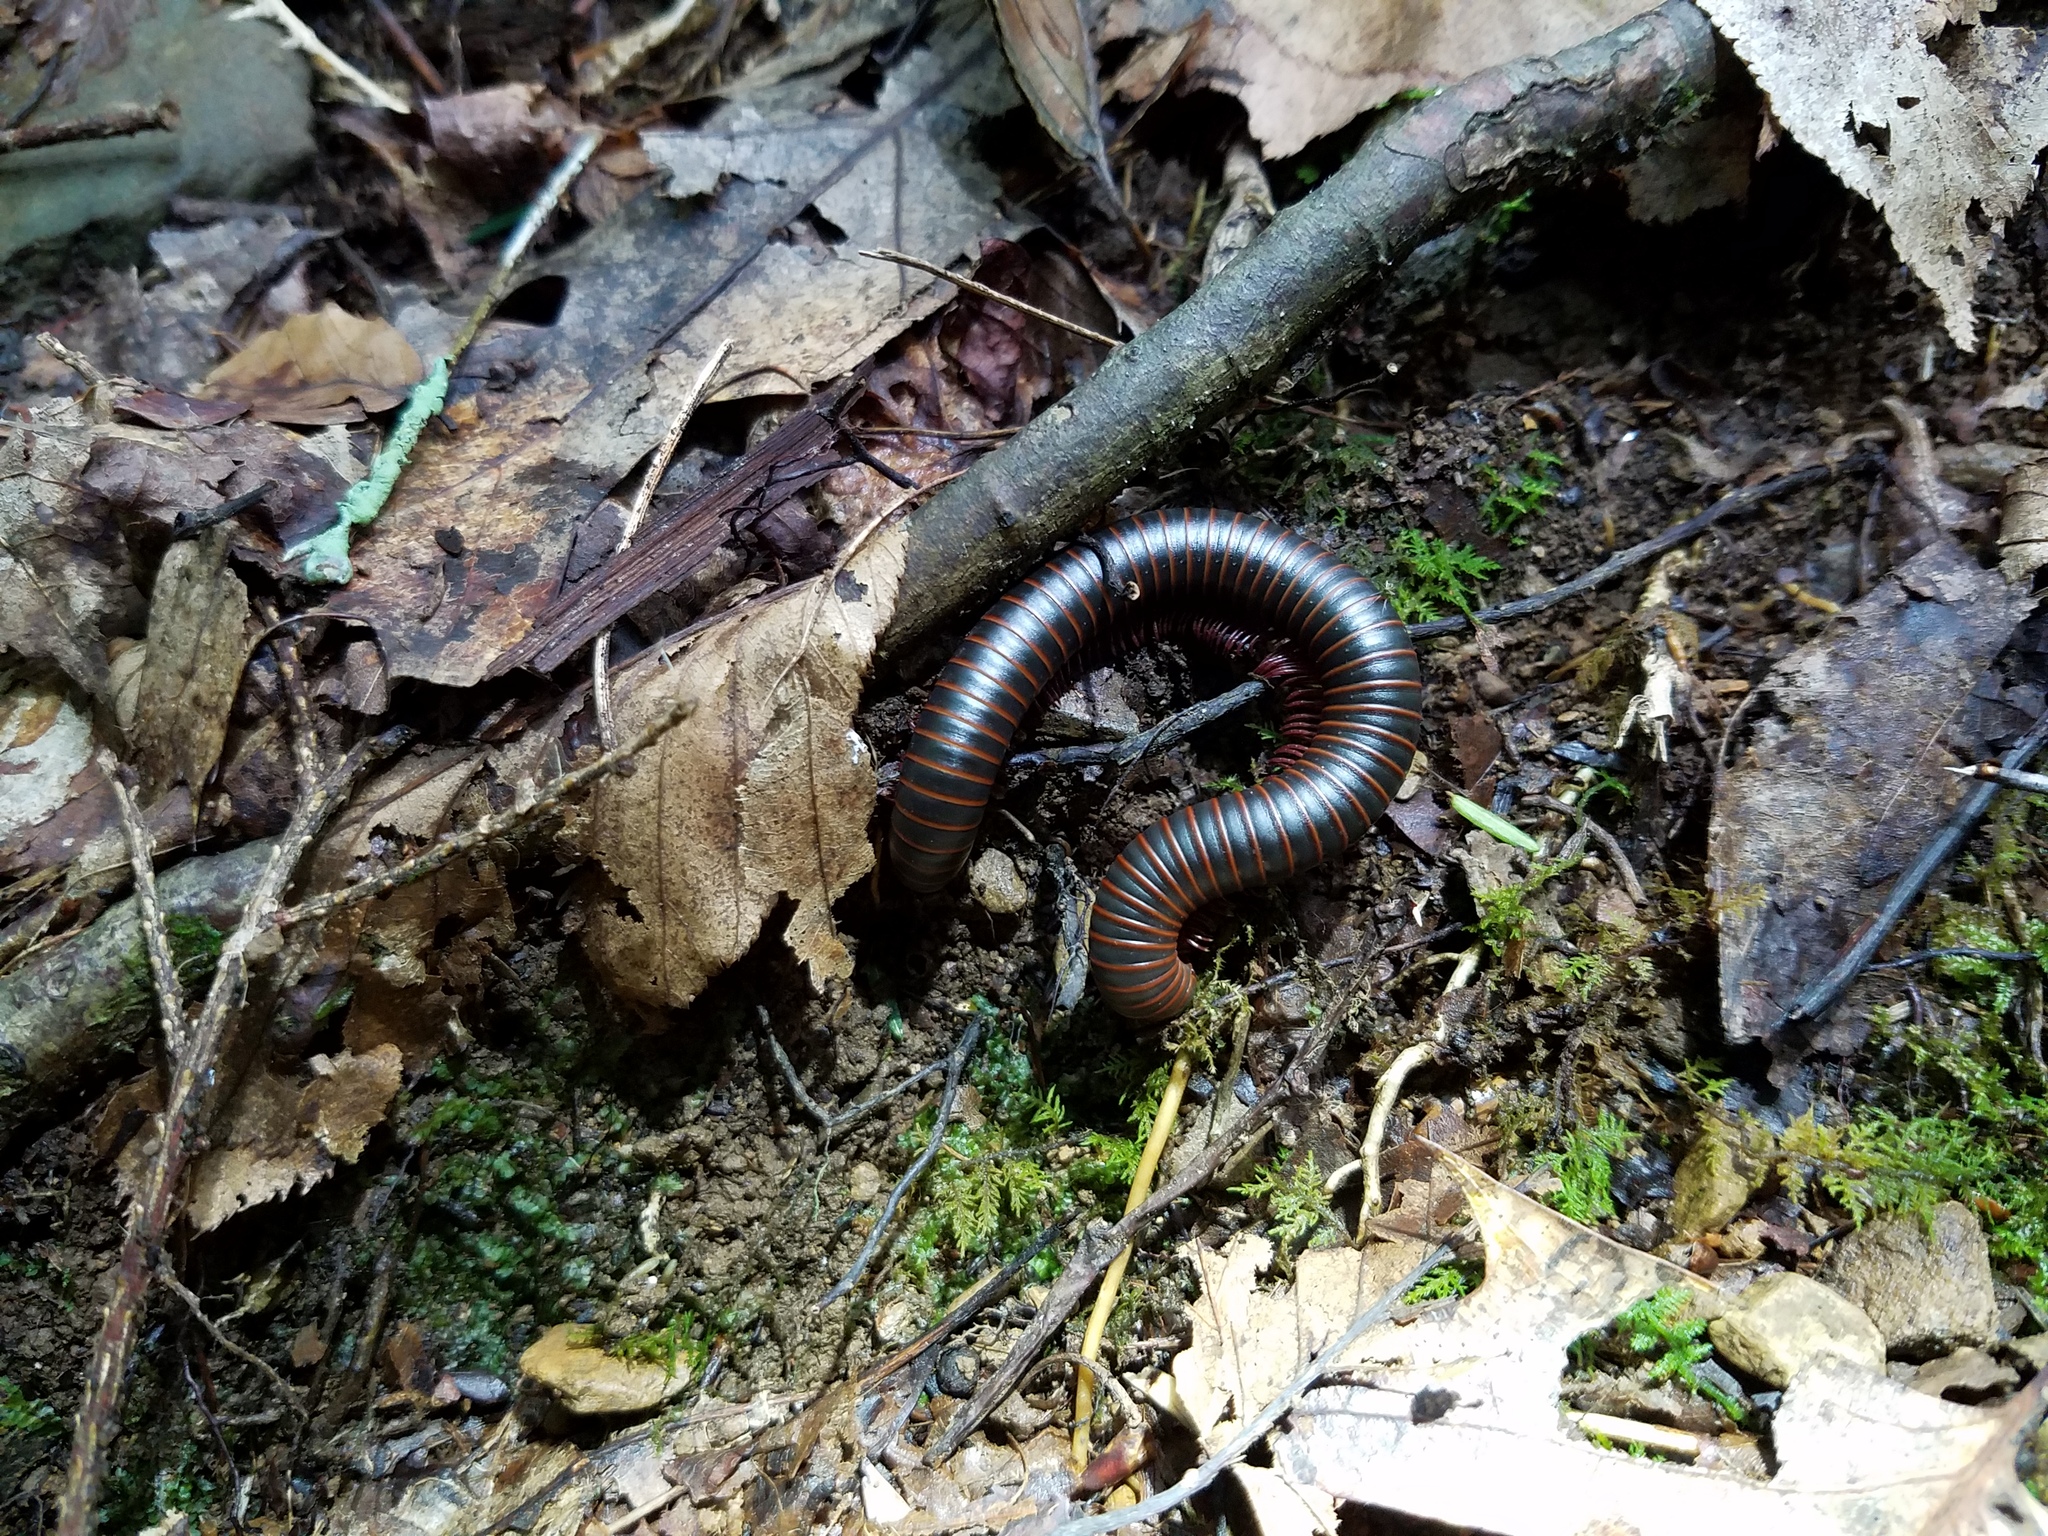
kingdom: Animalia
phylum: Arthropoda
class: Diplopoda
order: Spirobolida
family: Spirobolidae
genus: Narceus
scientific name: Narceus
